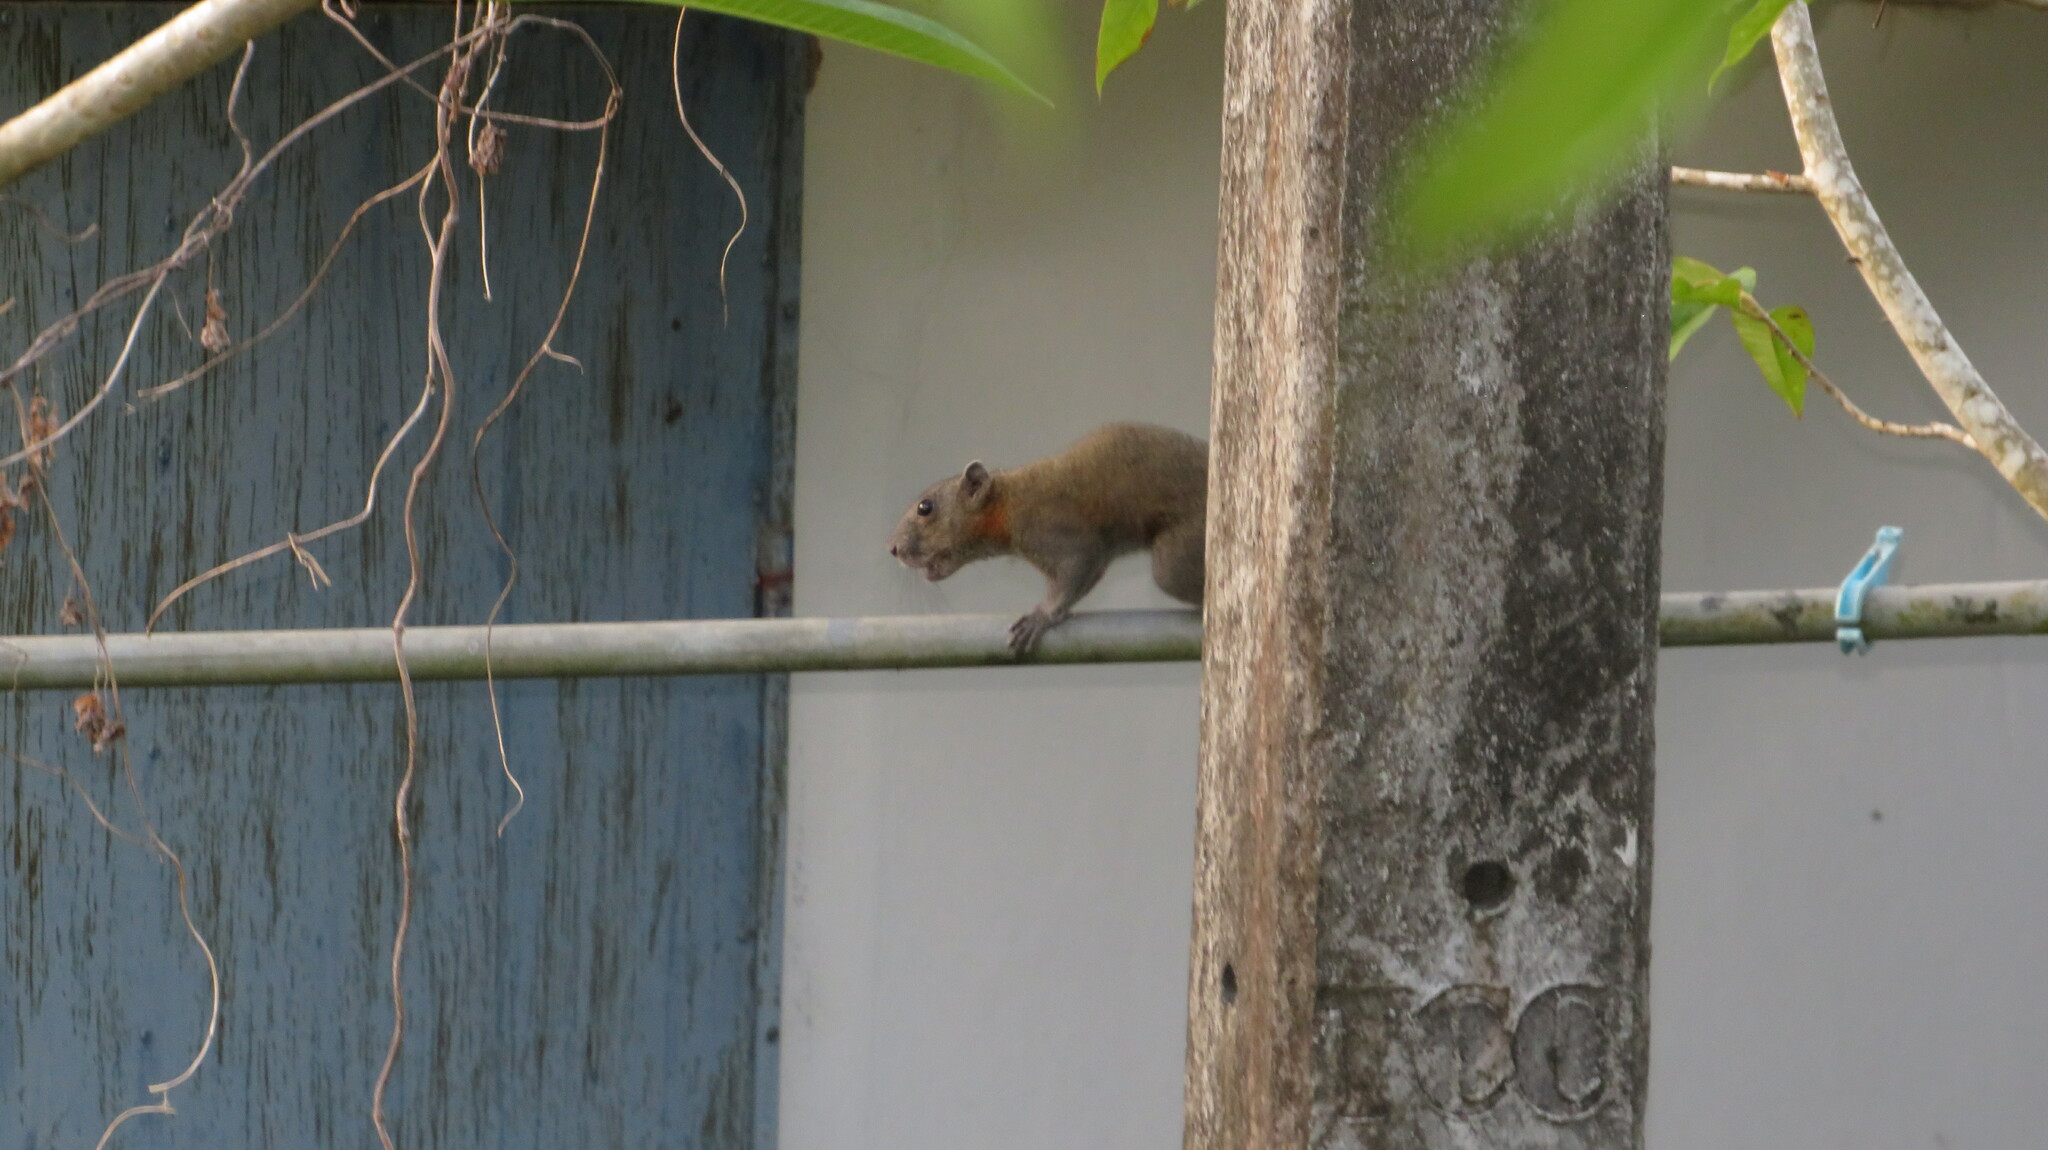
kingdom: Animalia
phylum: Chordata
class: Mammalia
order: Rodentia
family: Sciuridae
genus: Callosciurus
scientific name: Callosciurus caniceps
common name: Gray-bellied squirrel
